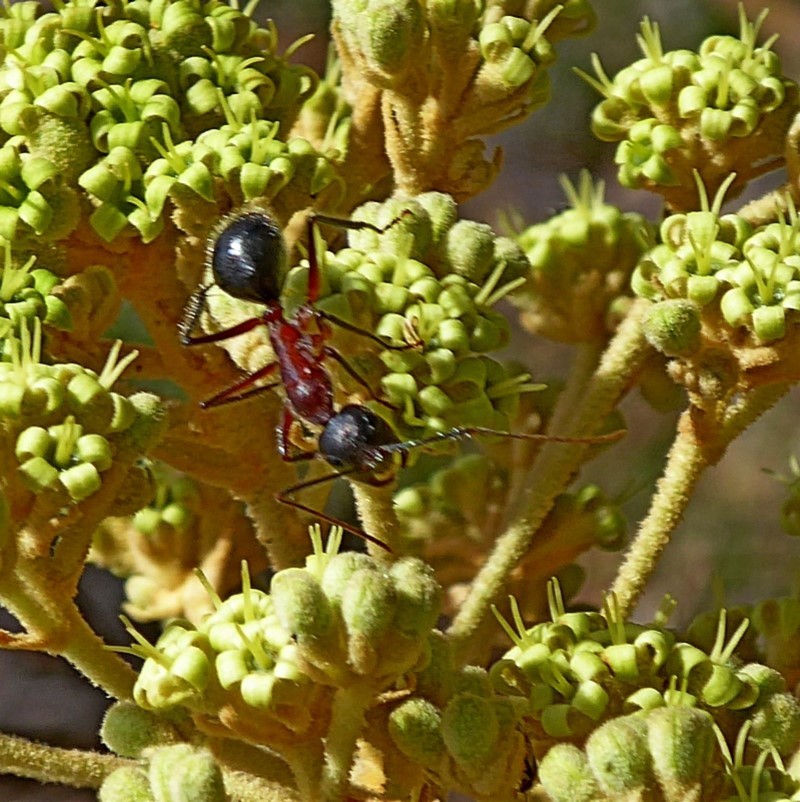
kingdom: Animalia
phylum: Arthropoda
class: Insecta
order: Hymenoptera
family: Formicidae
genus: Camponotus
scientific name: Camponotus intrepidus
